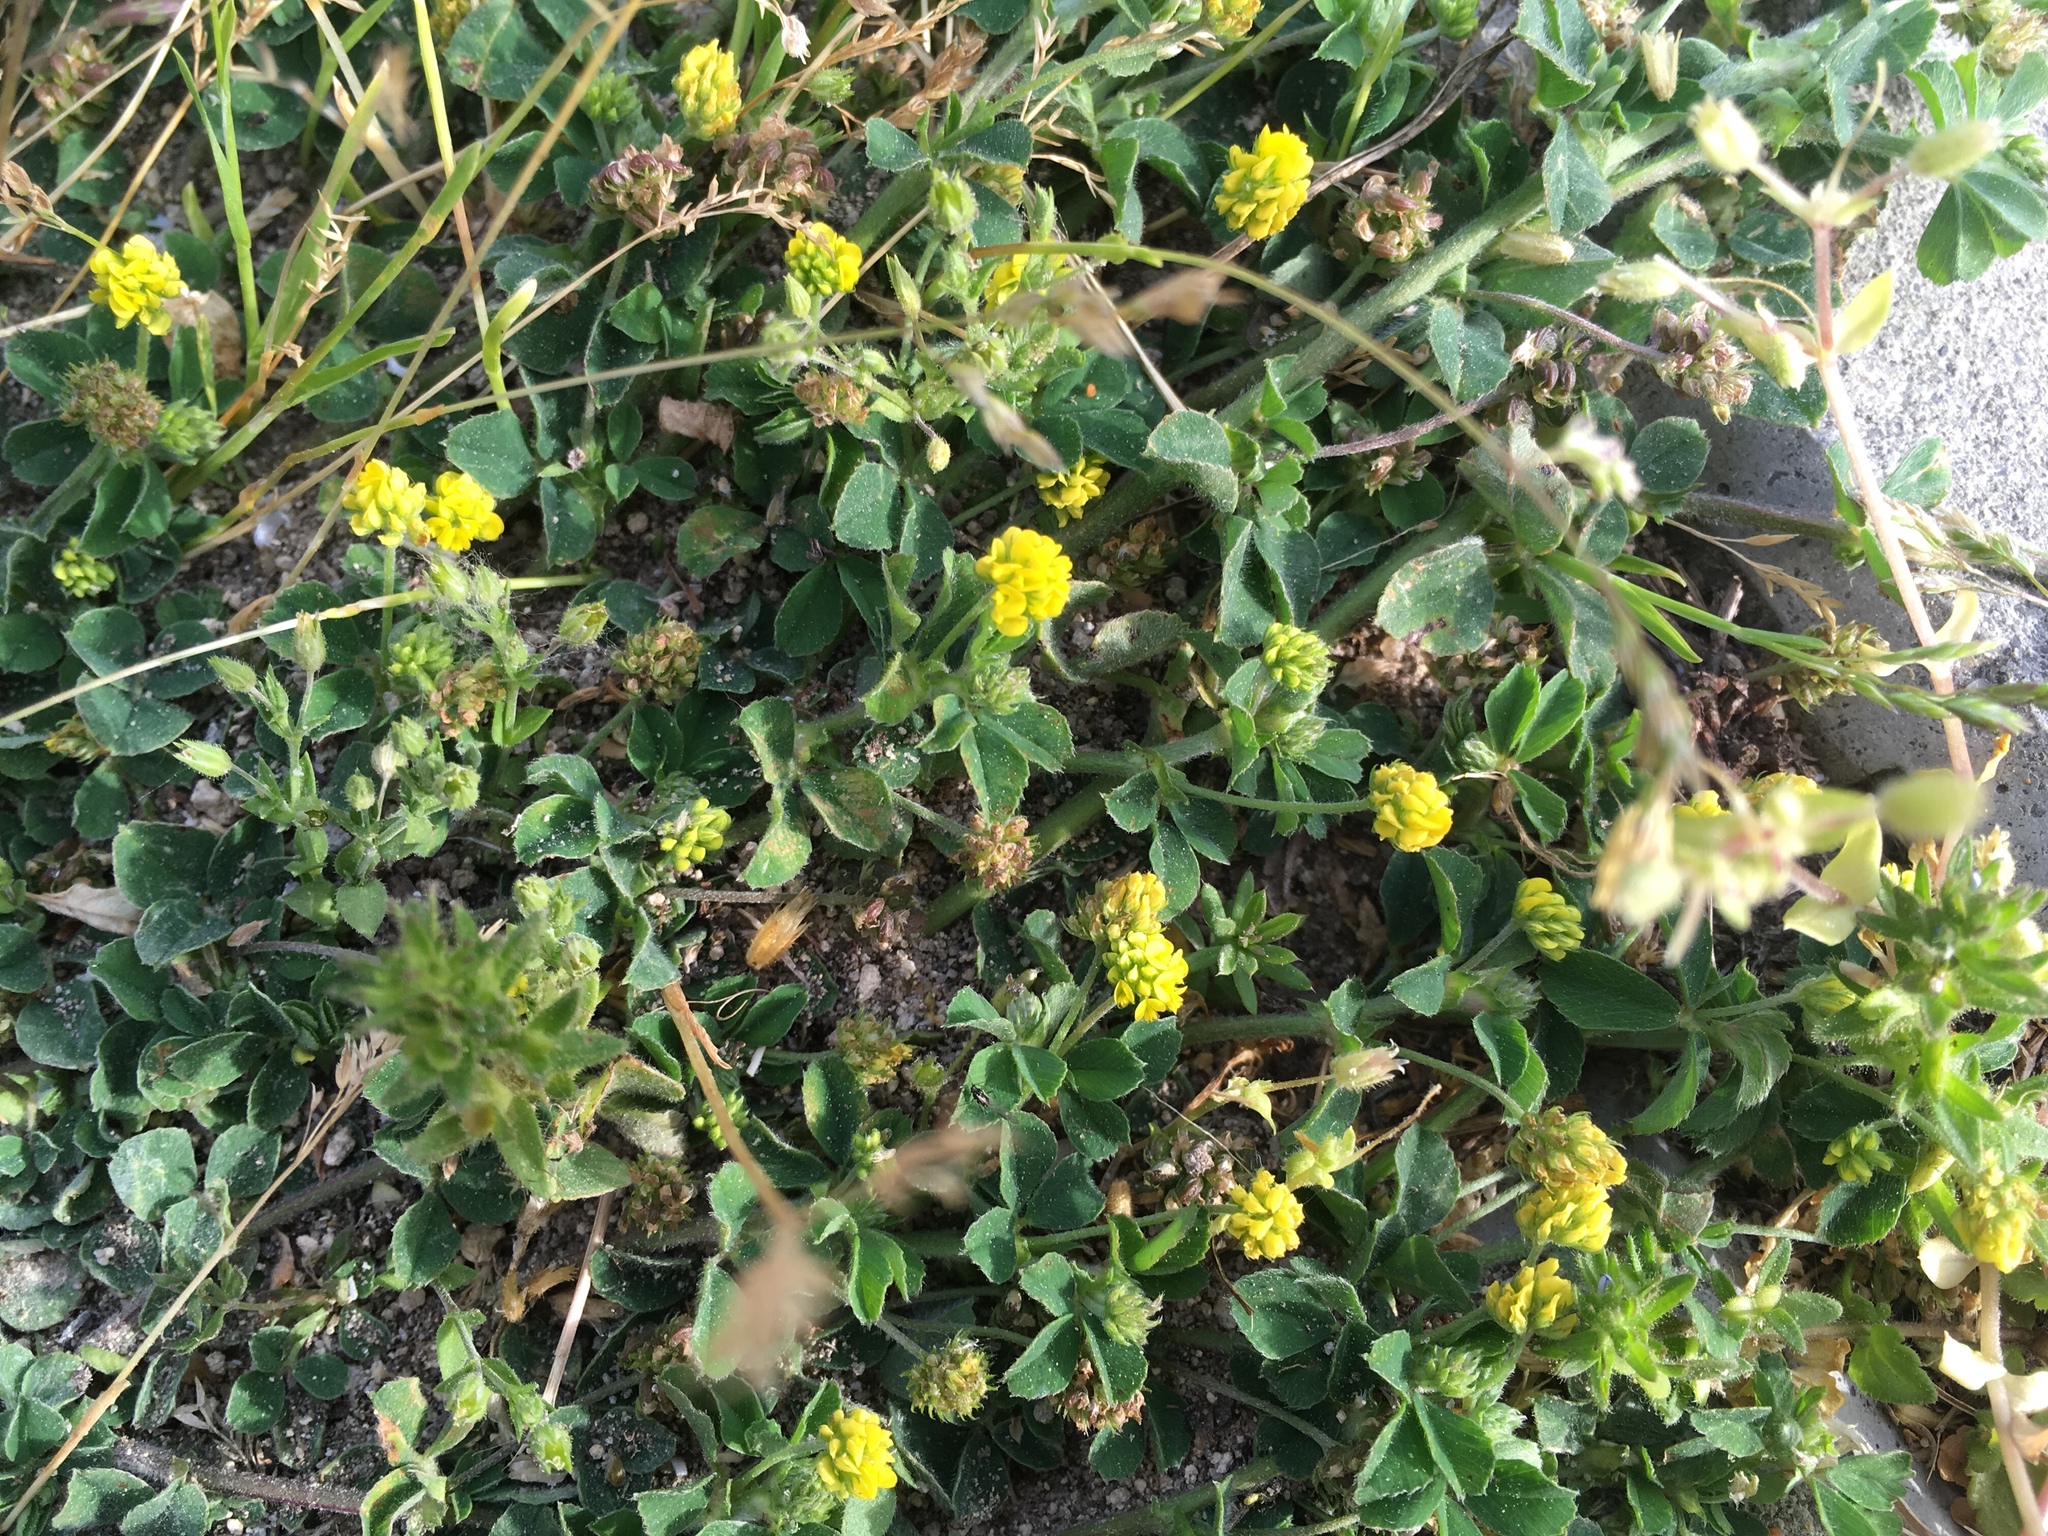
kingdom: Plantae
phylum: Tracheophyta
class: Magnoliopsida
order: Fabales
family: Fabaceae
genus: Medicago
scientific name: Medicago lupulina
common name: Black medick
